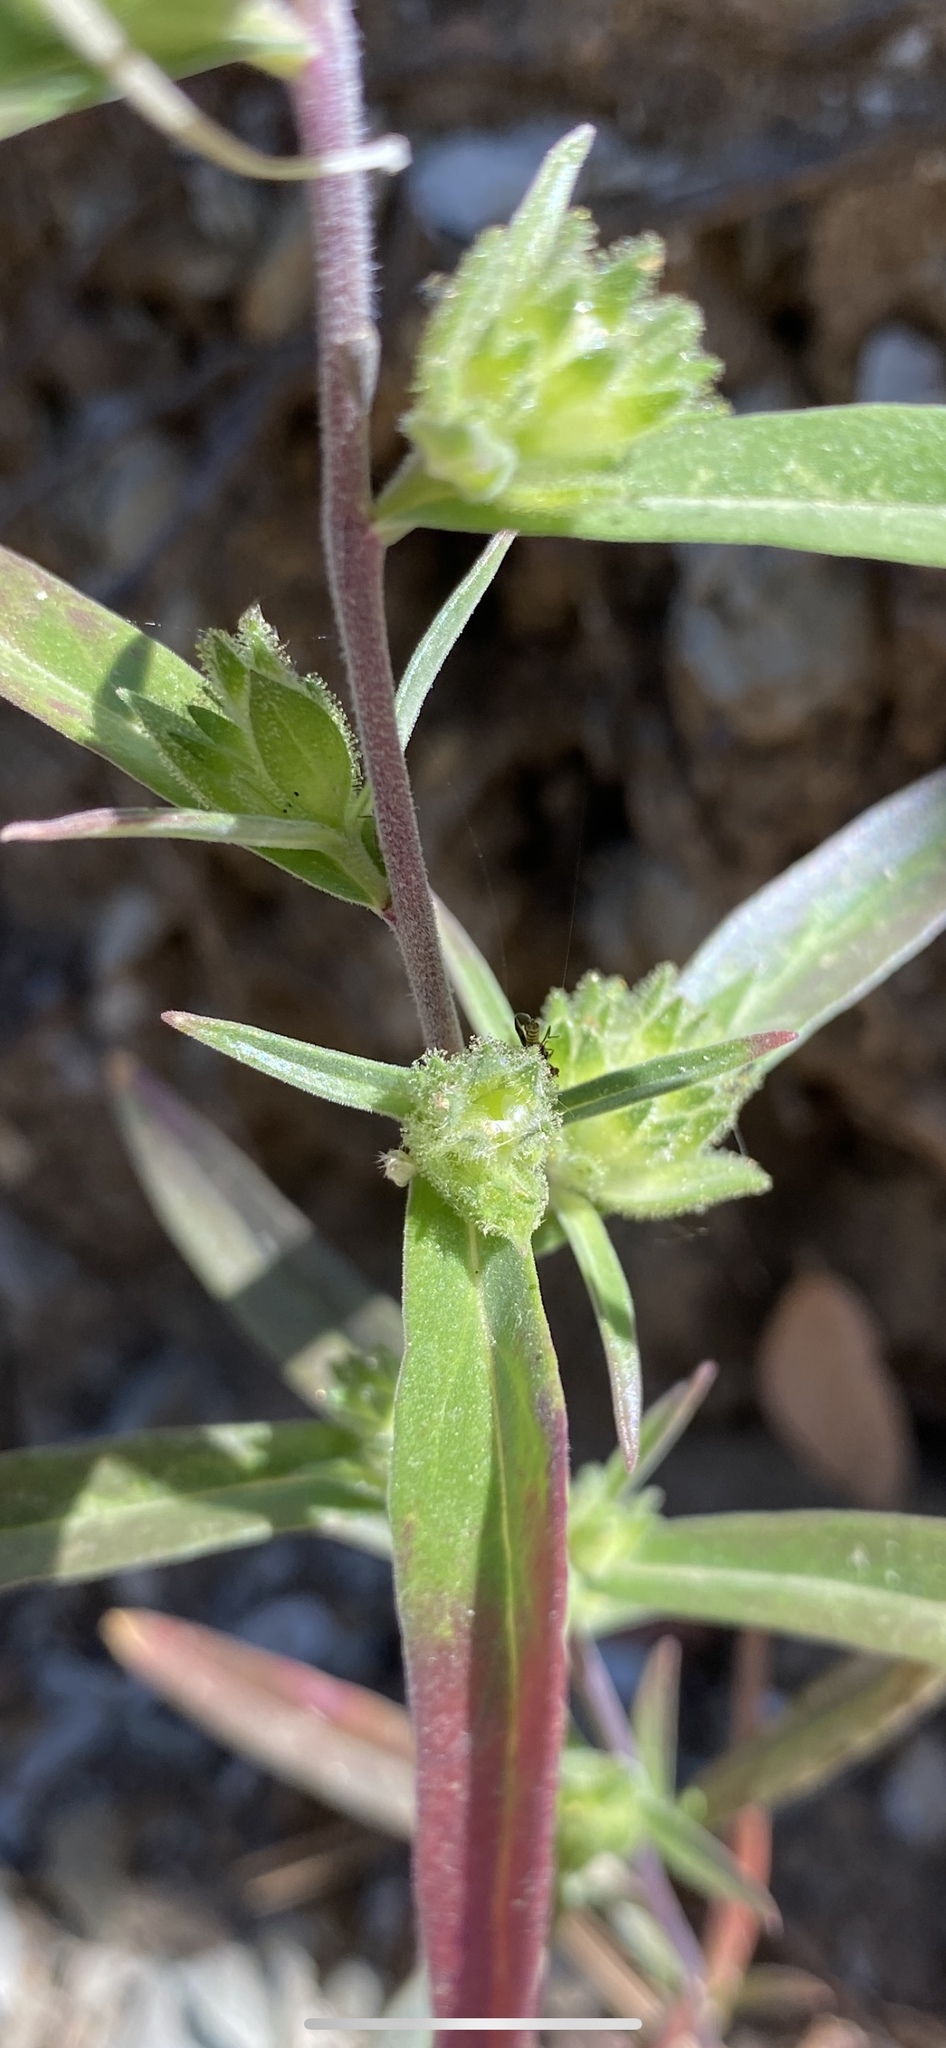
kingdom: Plantae
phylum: Tracheophyta
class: Magnoliopsida
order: Ericales
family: Polemoniaceae
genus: Collomia
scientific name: Collomia grandiflora
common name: California strawflower
